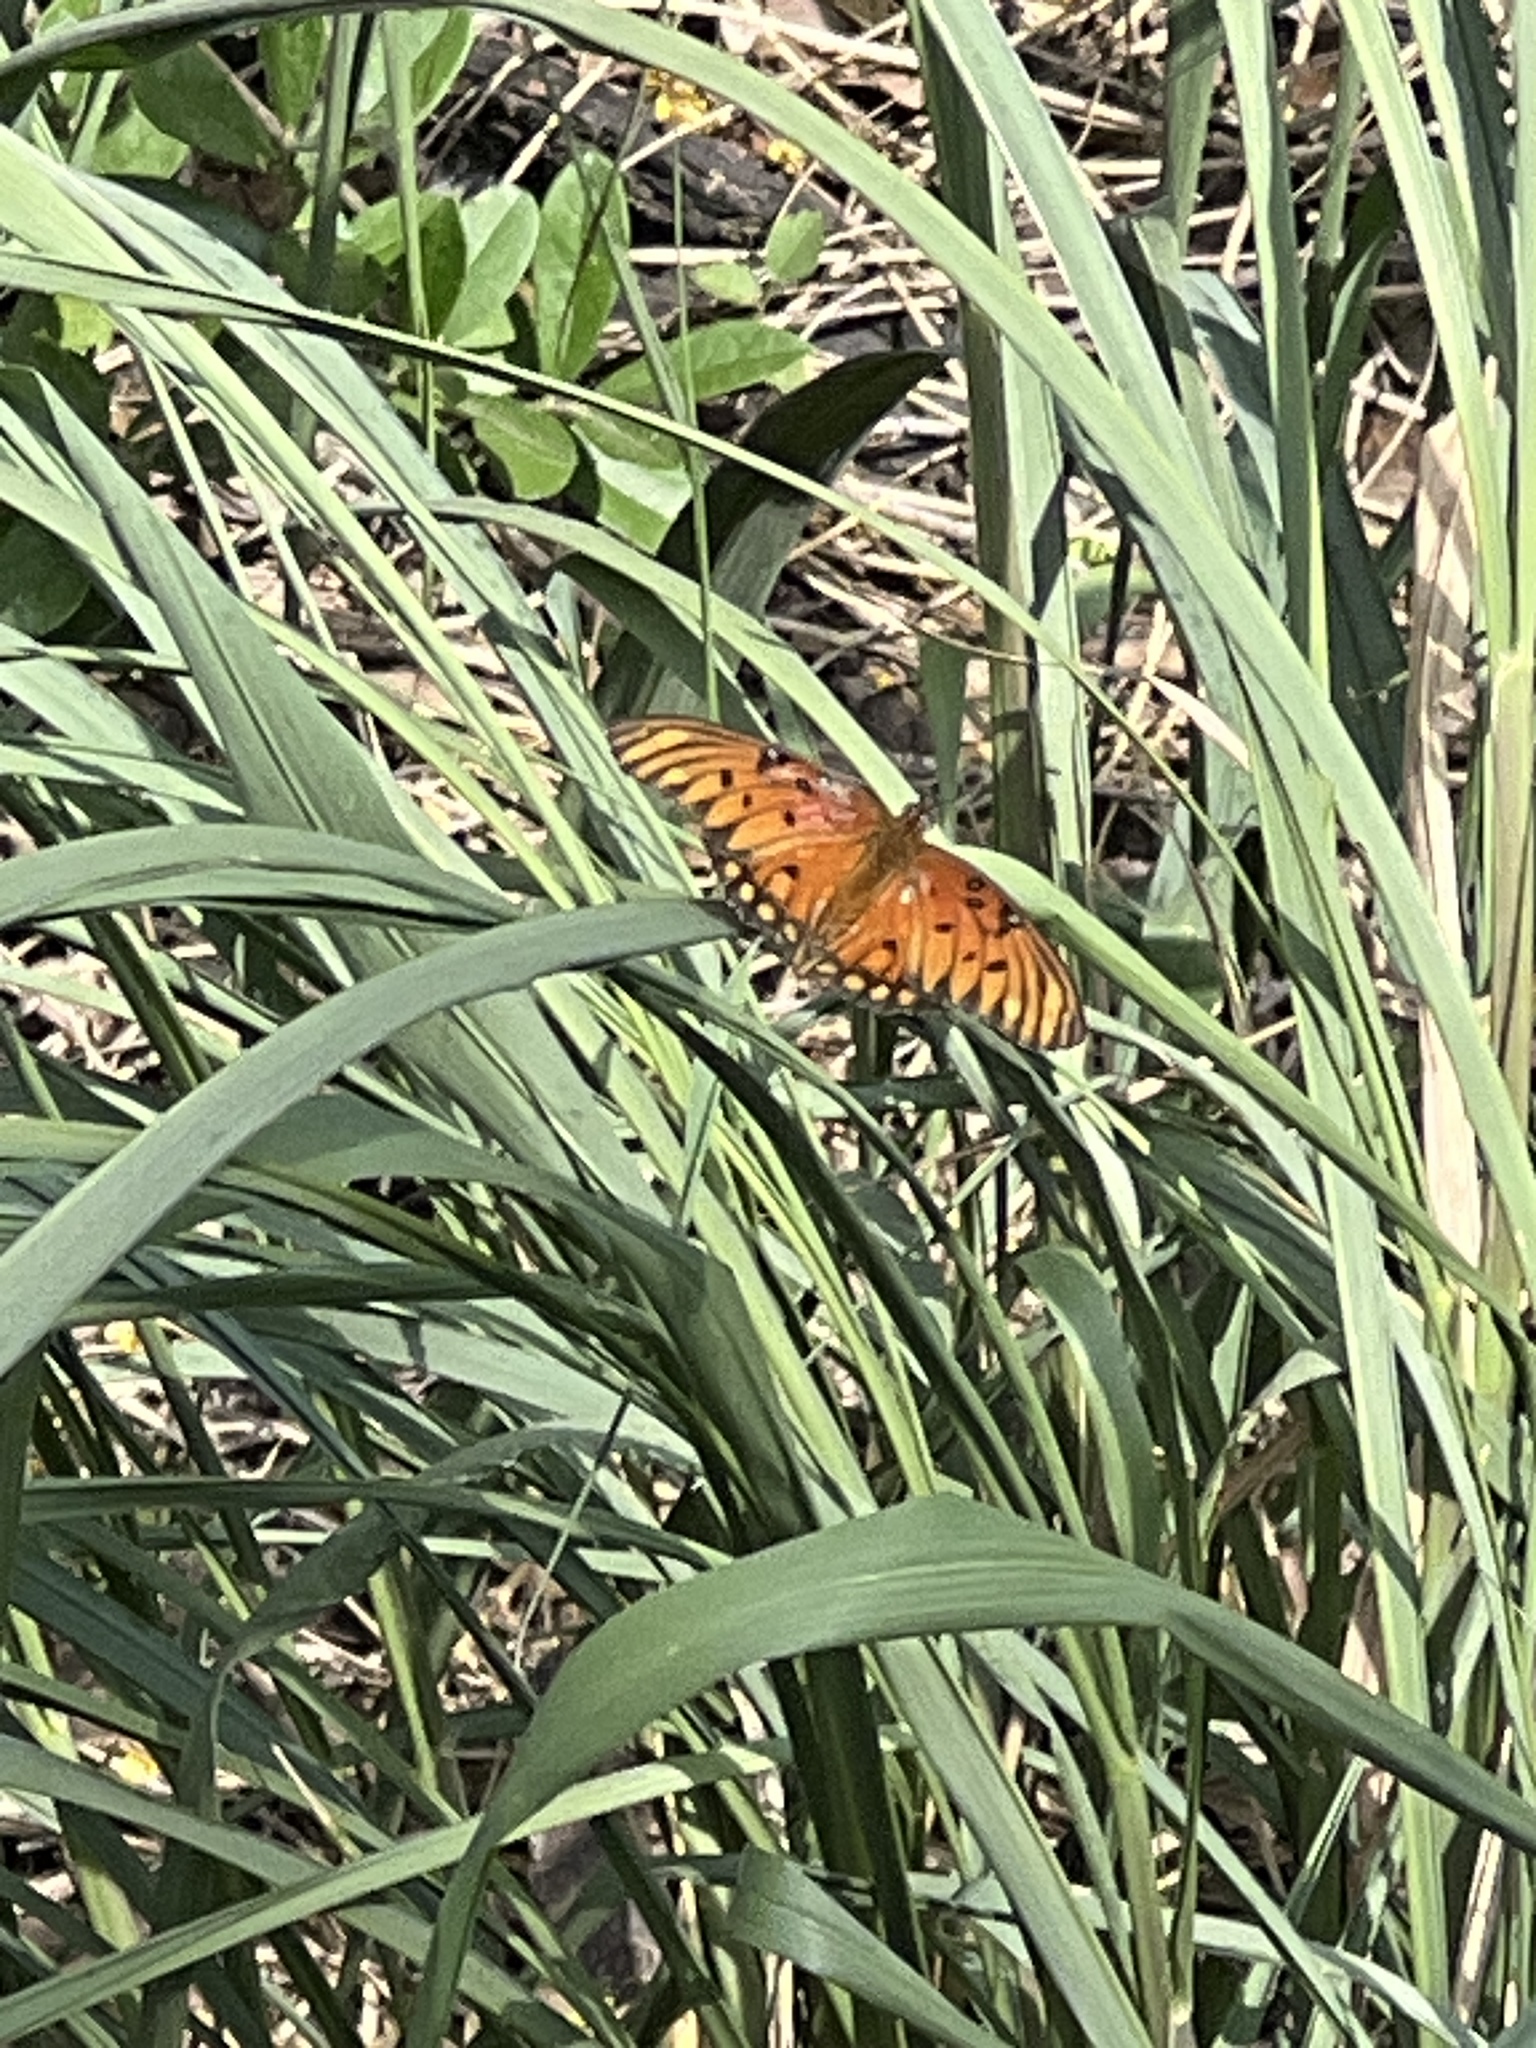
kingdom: Animalia
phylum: Arthropoda
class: Insecta
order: Lepidoptera
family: Nymphalidae
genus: Dione
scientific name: Dione vanillae
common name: Gulf fritillary
